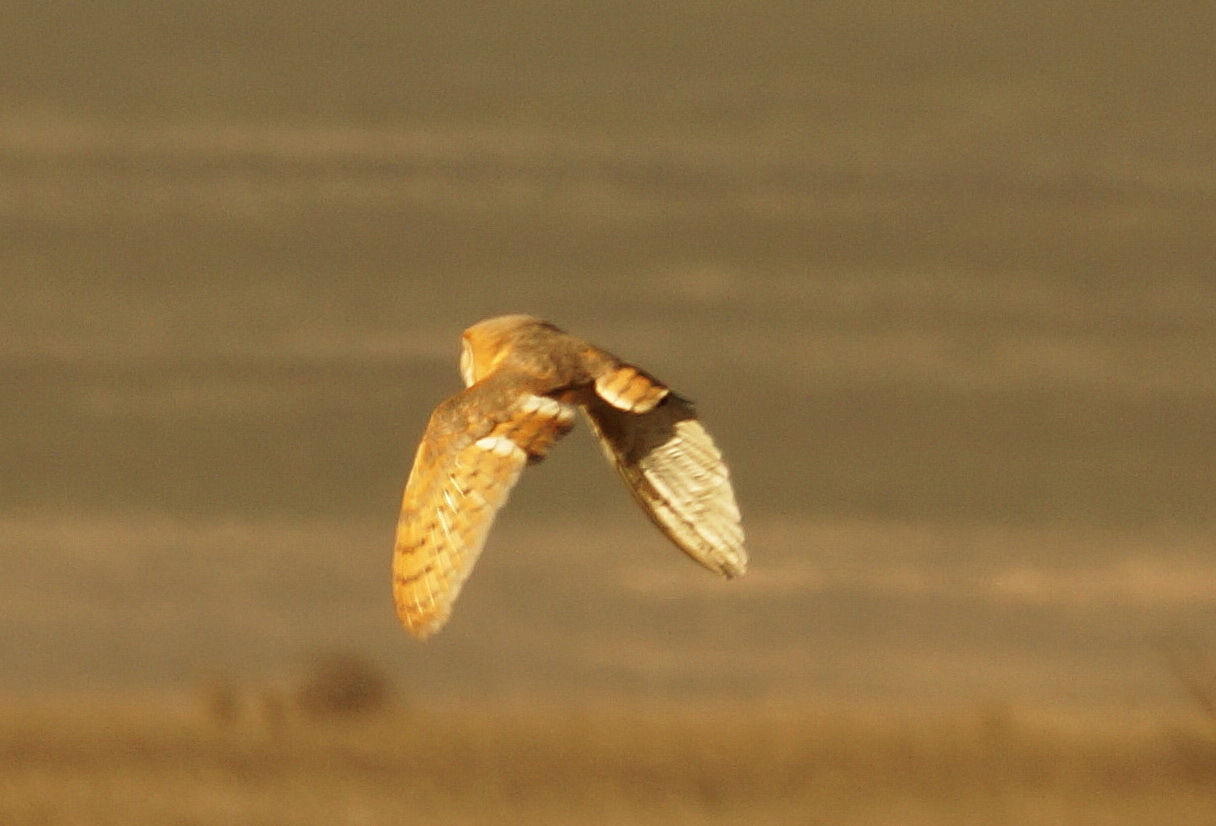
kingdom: Animalia
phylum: Chordata
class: Aves
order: Strigiformes
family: Tytonidae
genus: Tyto
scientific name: Tyto alba
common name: Barn owl
